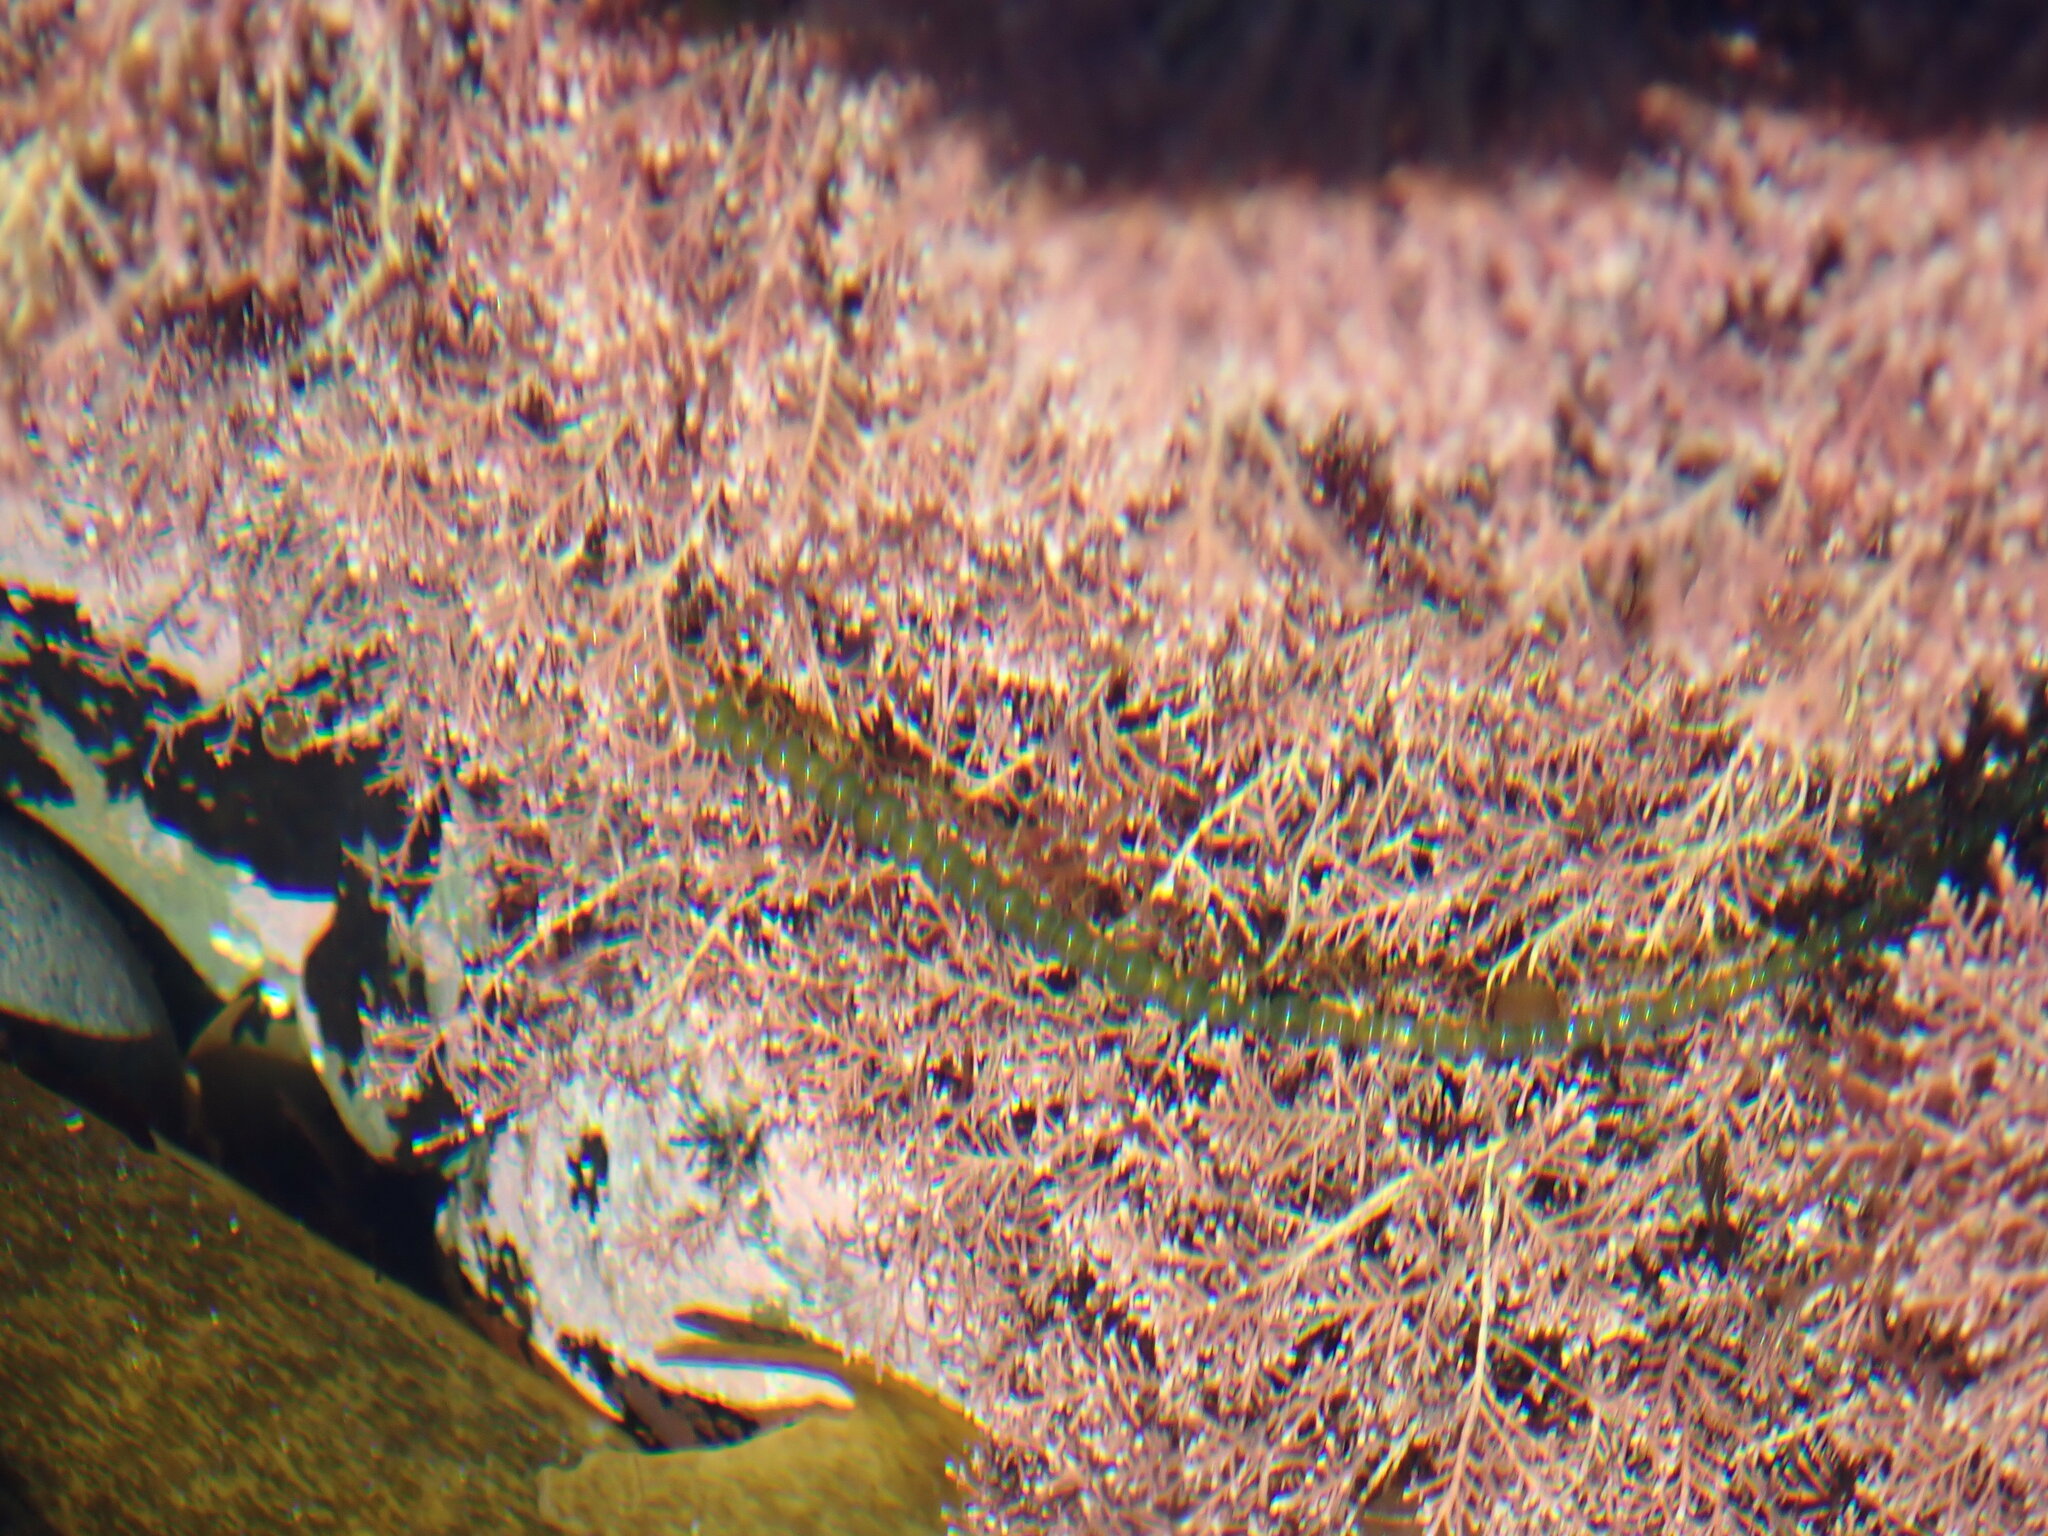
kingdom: Plantae
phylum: Chlorophyta
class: Ulvophyceae
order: Cladophorales
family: Cladophoraceae
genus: Chaetomorpha
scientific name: Chaetomorpha coliformis
